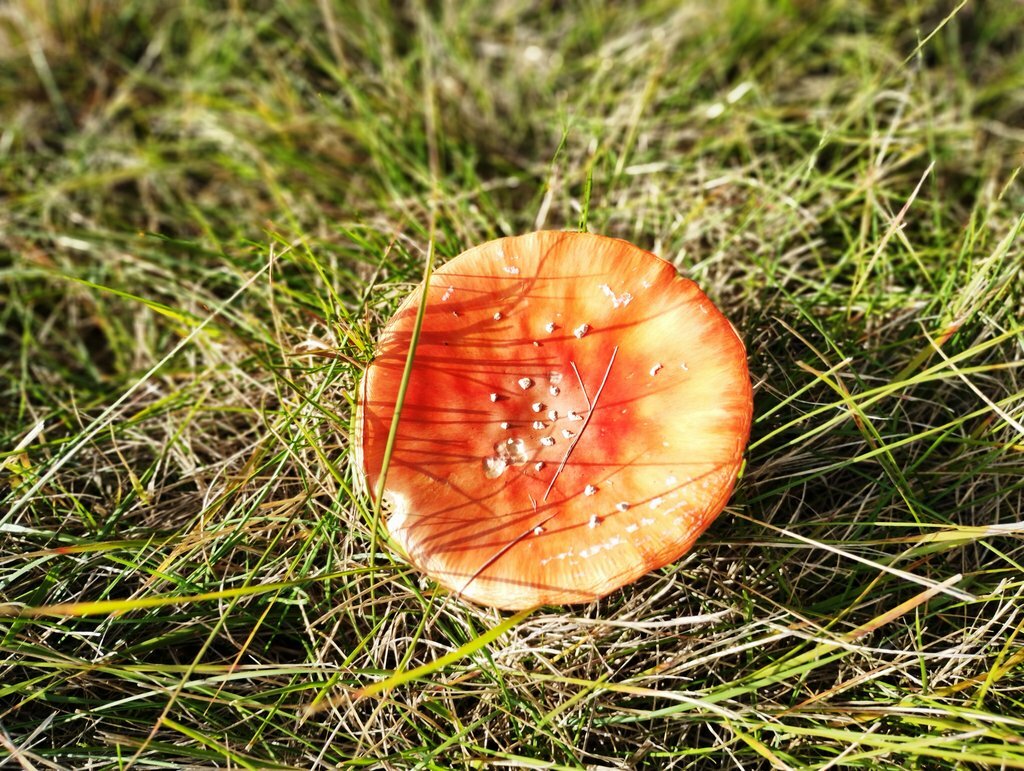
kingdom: Fungi
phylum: Basidiomycota
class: Agaricomycetes
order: Agaricales
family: Amanitaceae
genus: Amanita
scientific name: Amanita muscaria
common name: Fly agaric
